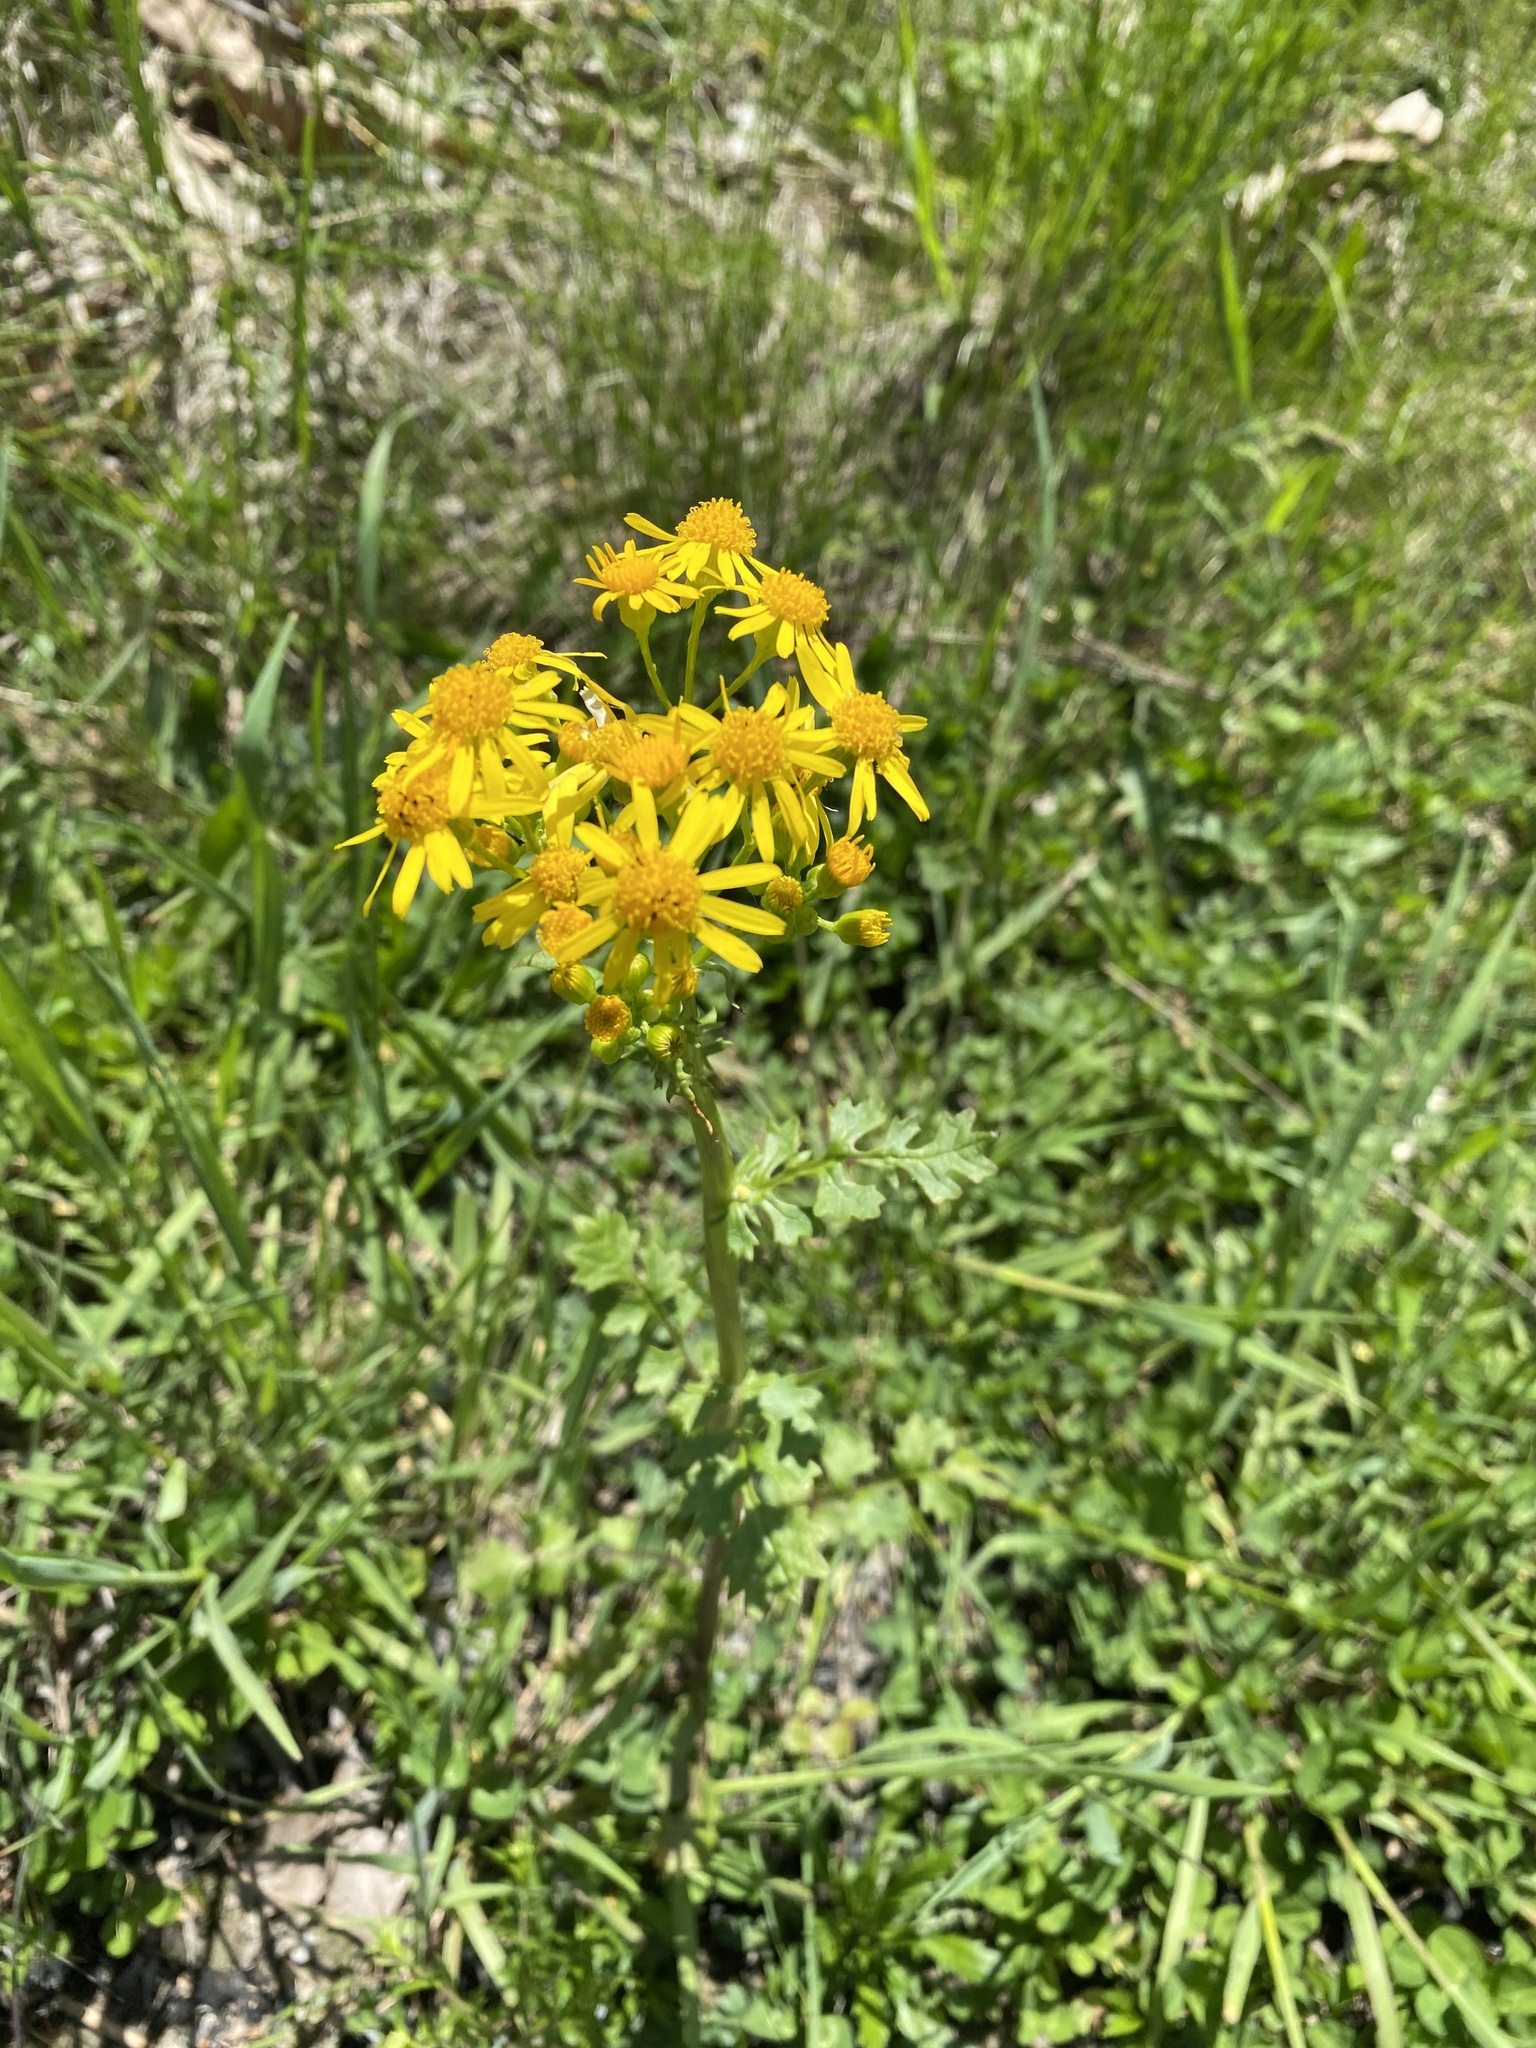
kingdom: Plantae
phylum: Tracheophyta
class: Magnoliopsida
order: Asterales
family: Asteraceae
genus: Packera
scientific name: Packera glabella
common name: Butterweed
